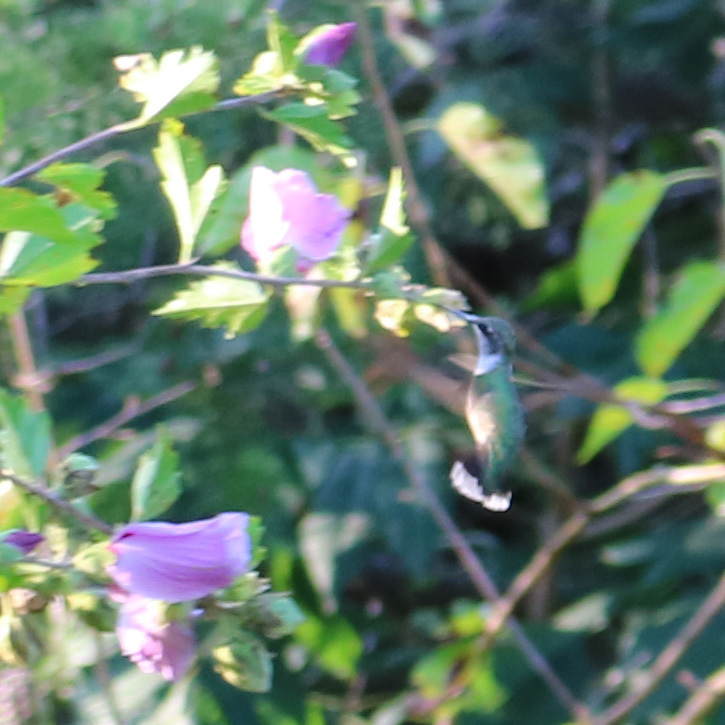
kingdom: Animalia
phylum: Chordata
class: Aves
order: Apodiformes
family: Trochilidae
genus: Archilochus
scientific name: Archilochus colubris
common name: Ruby-throated hummingbird
